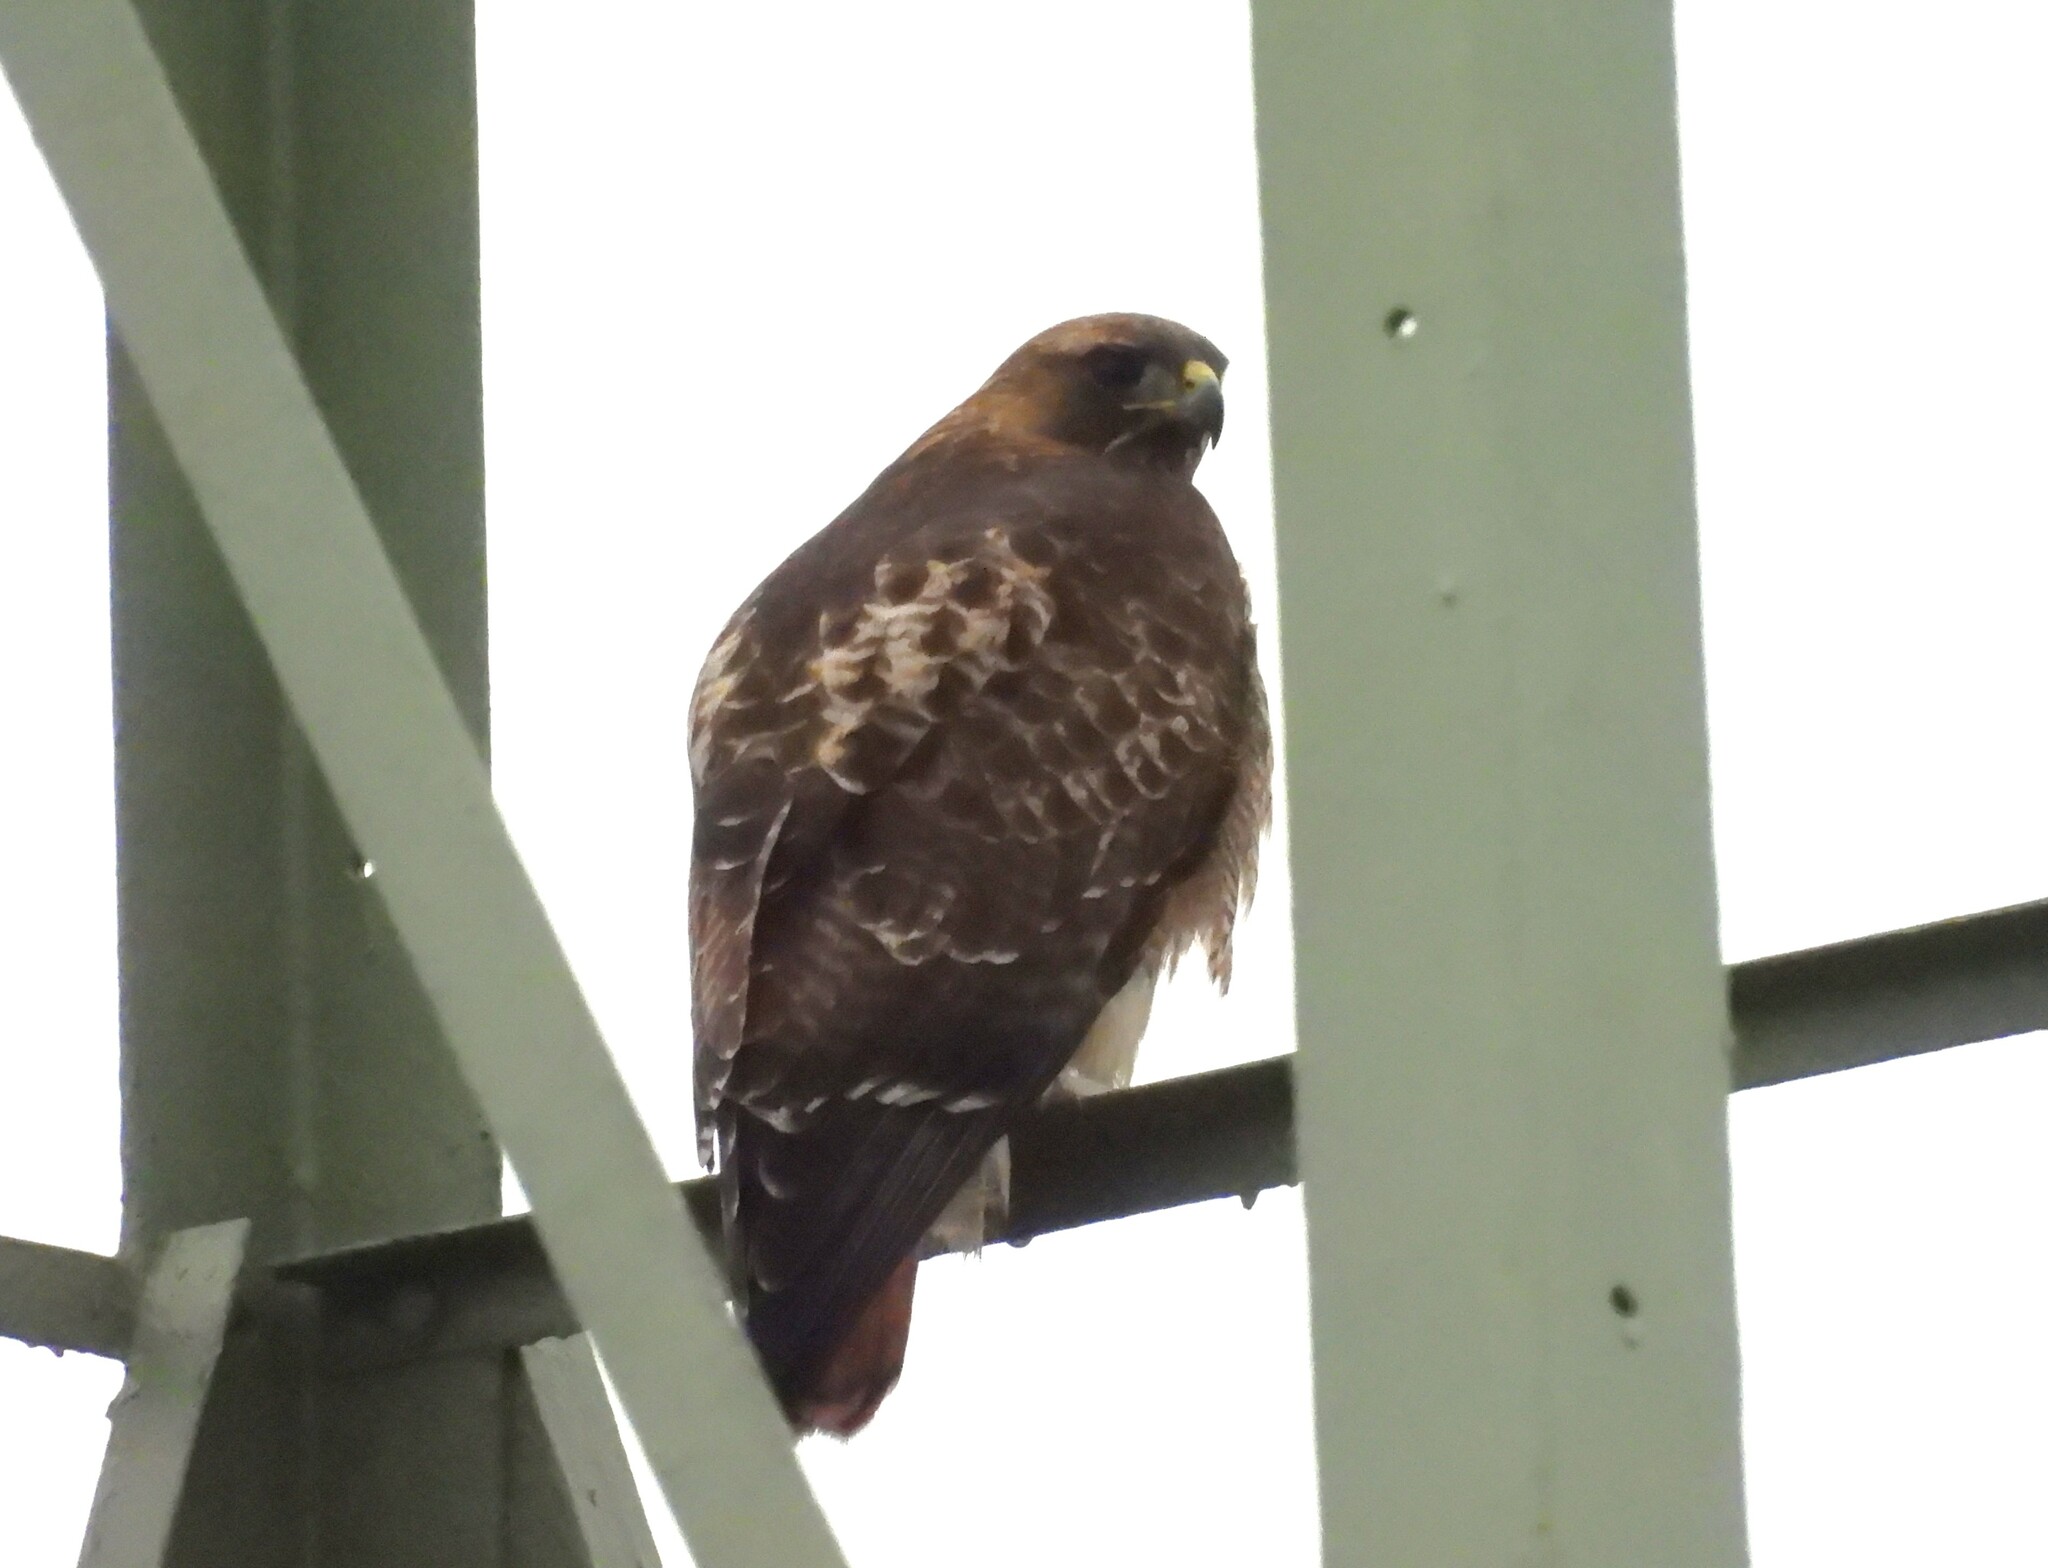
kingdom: Animalia
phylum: Chordata
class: Aves
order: Accipitriformes
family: Accipitridae
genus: Buteo
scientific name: Buteo jamaicensis
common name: Red-tailed hawk
